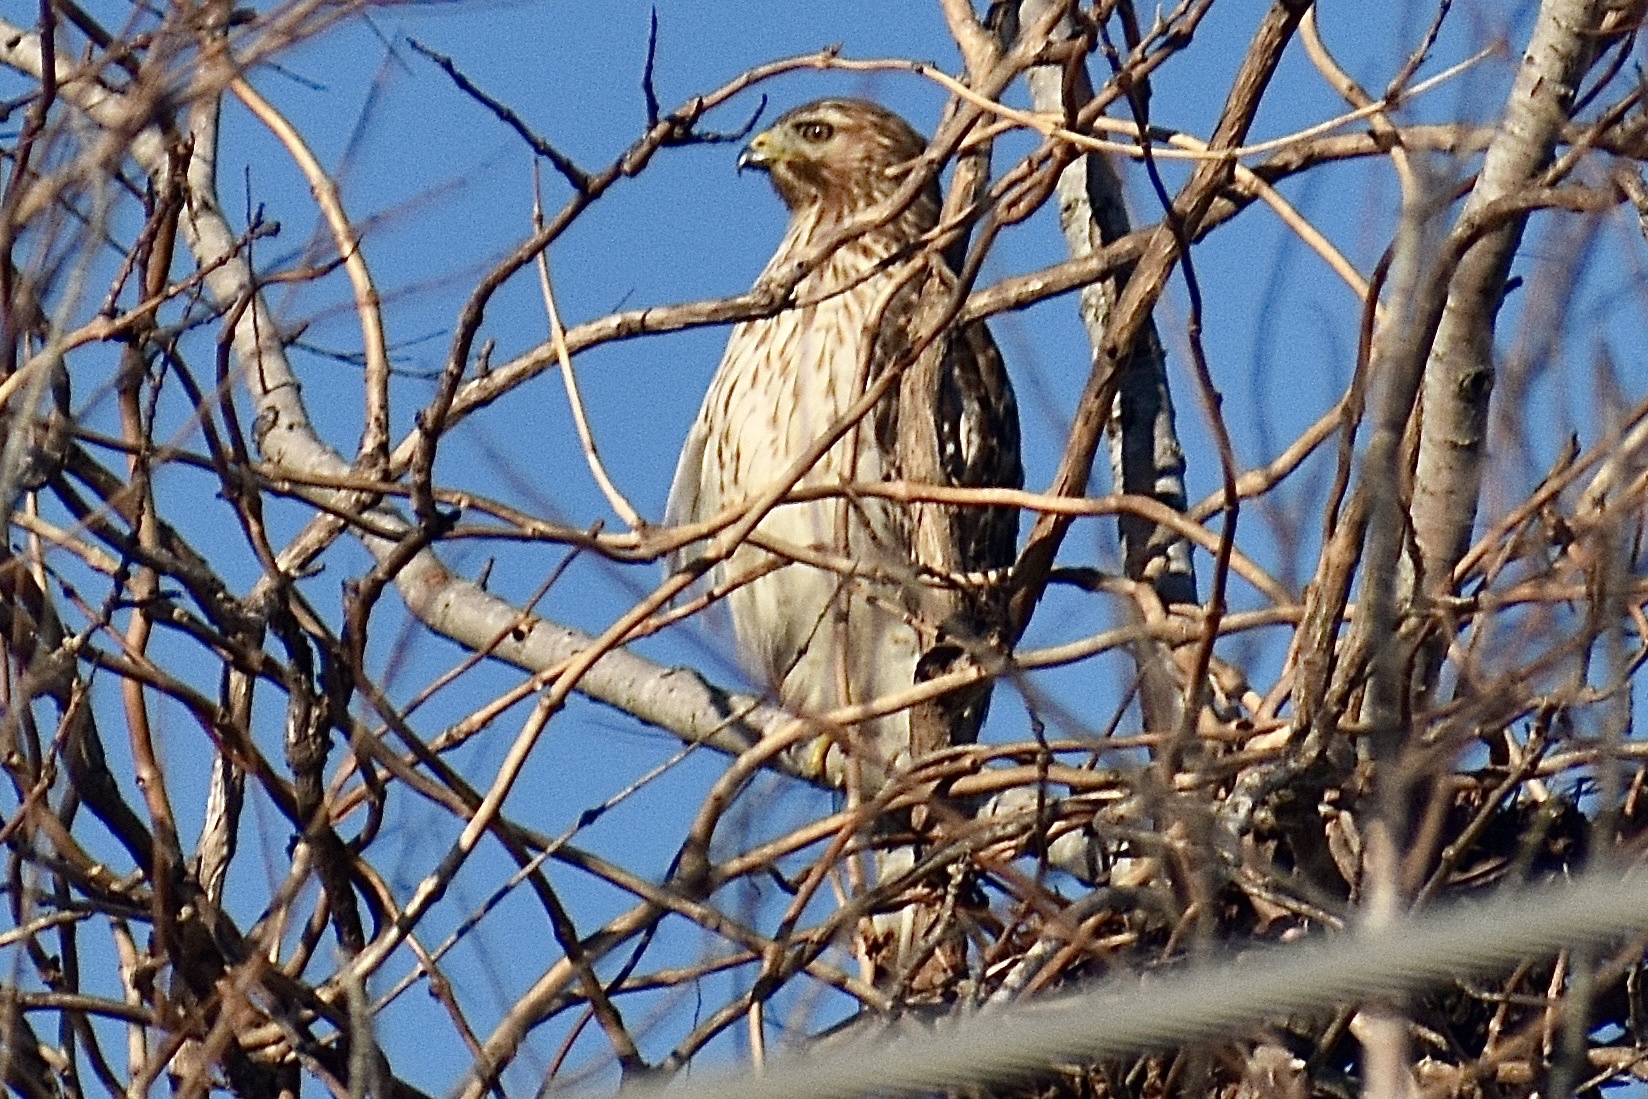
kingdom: Animalia
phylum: Chordata
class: Aves
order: Accipitriformes
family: Accipitridae
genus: Buteo
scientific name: Buteo lineatus
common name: Red-shouldered hawk
